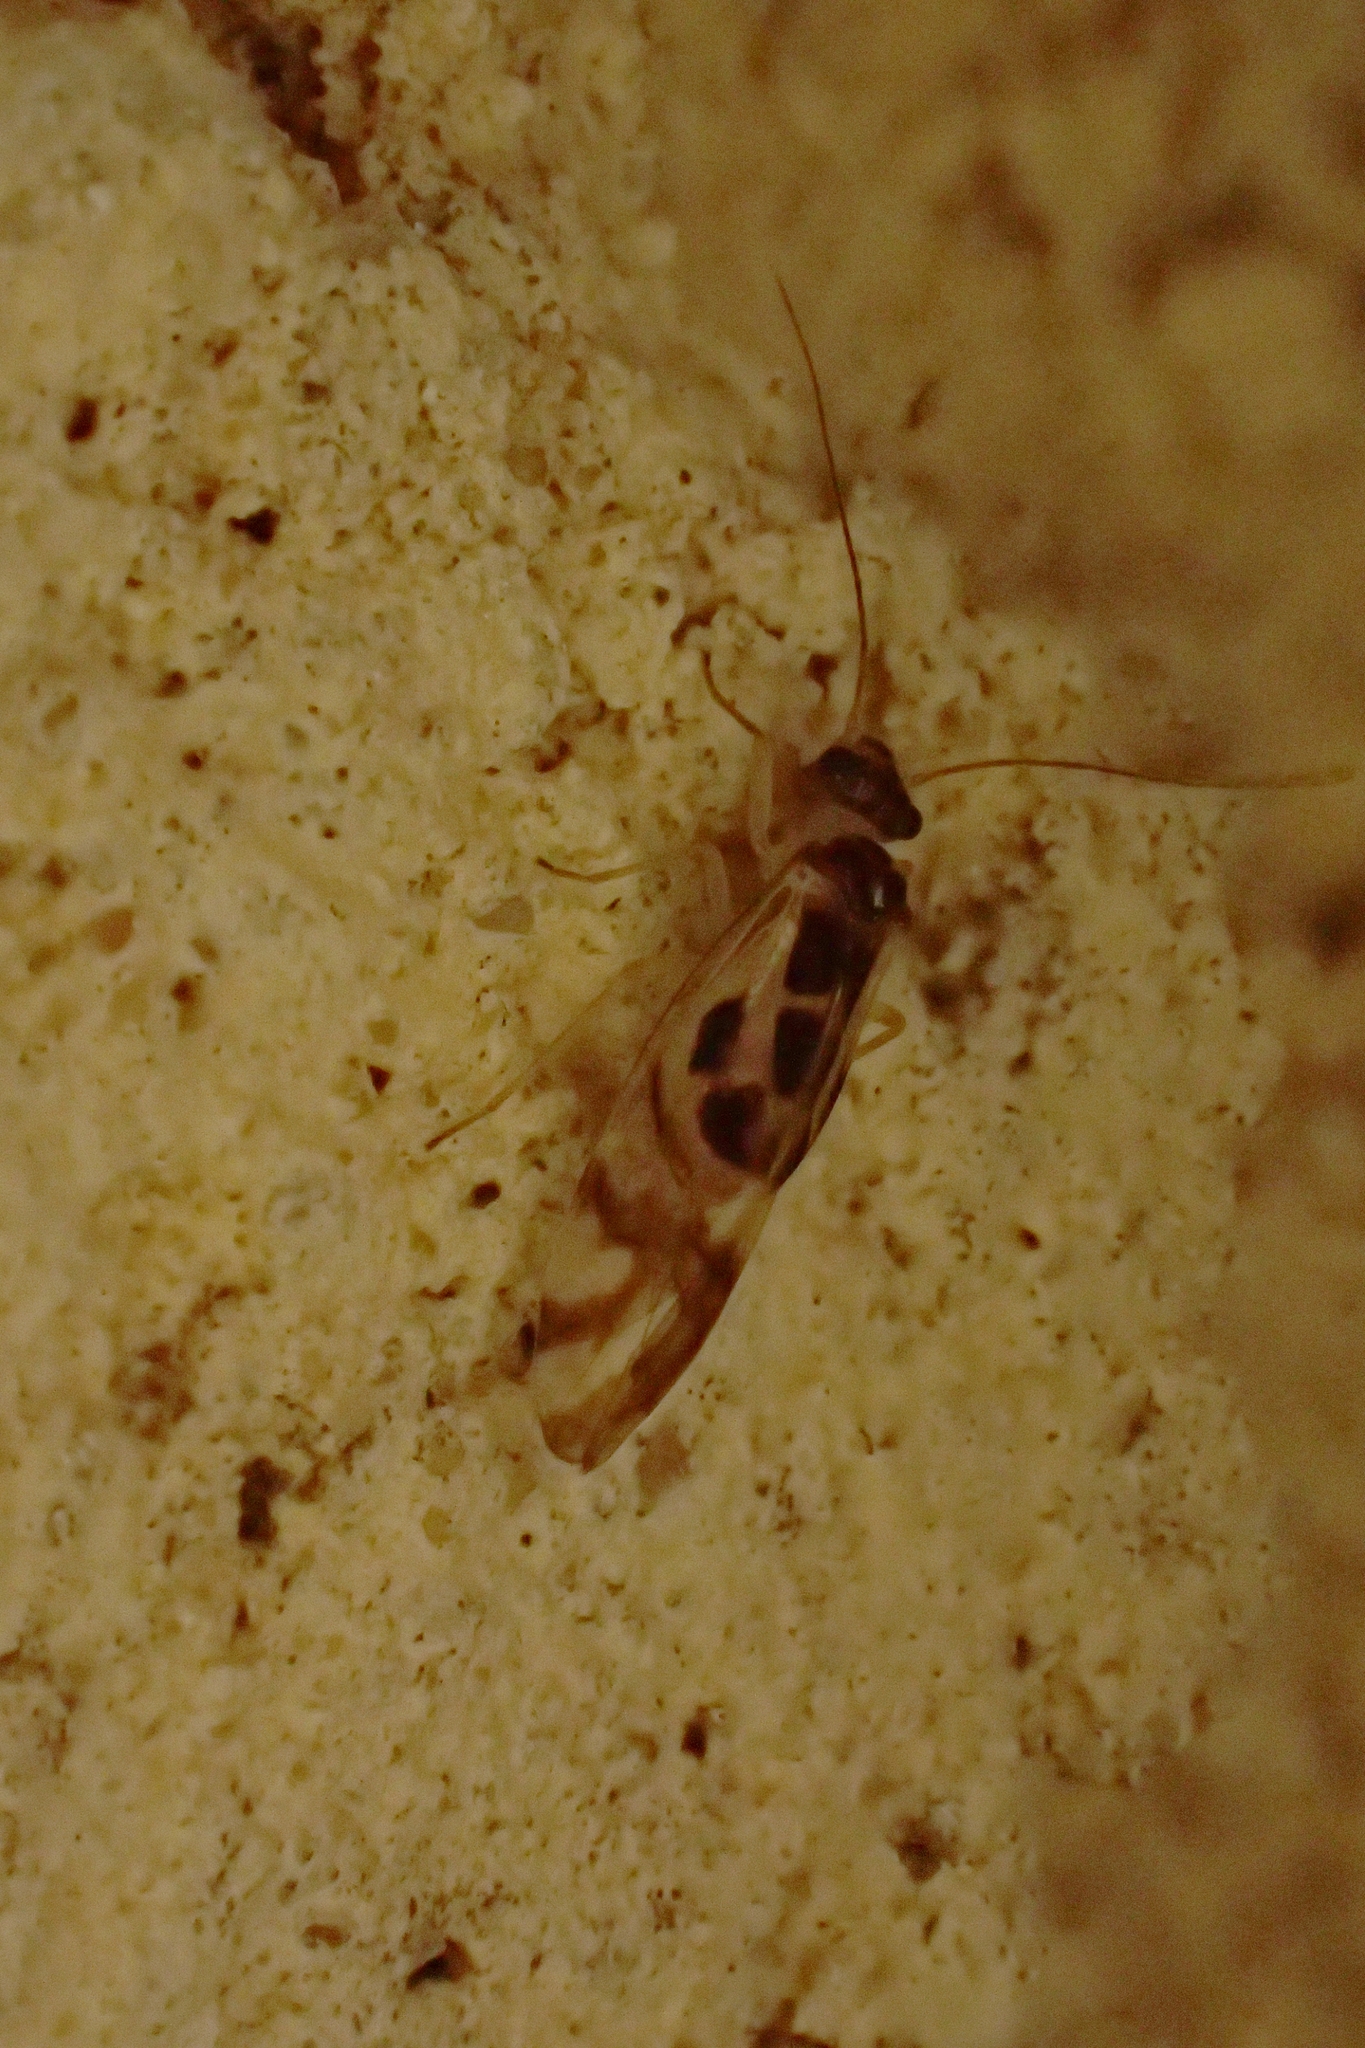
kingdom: Animalia
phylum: Arthropoda
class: Insecta
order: Psocodea
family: Stenopsocidae
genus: Graphopsocus
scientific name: Graphopsocus cruciatus
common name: Lizard bark louse
